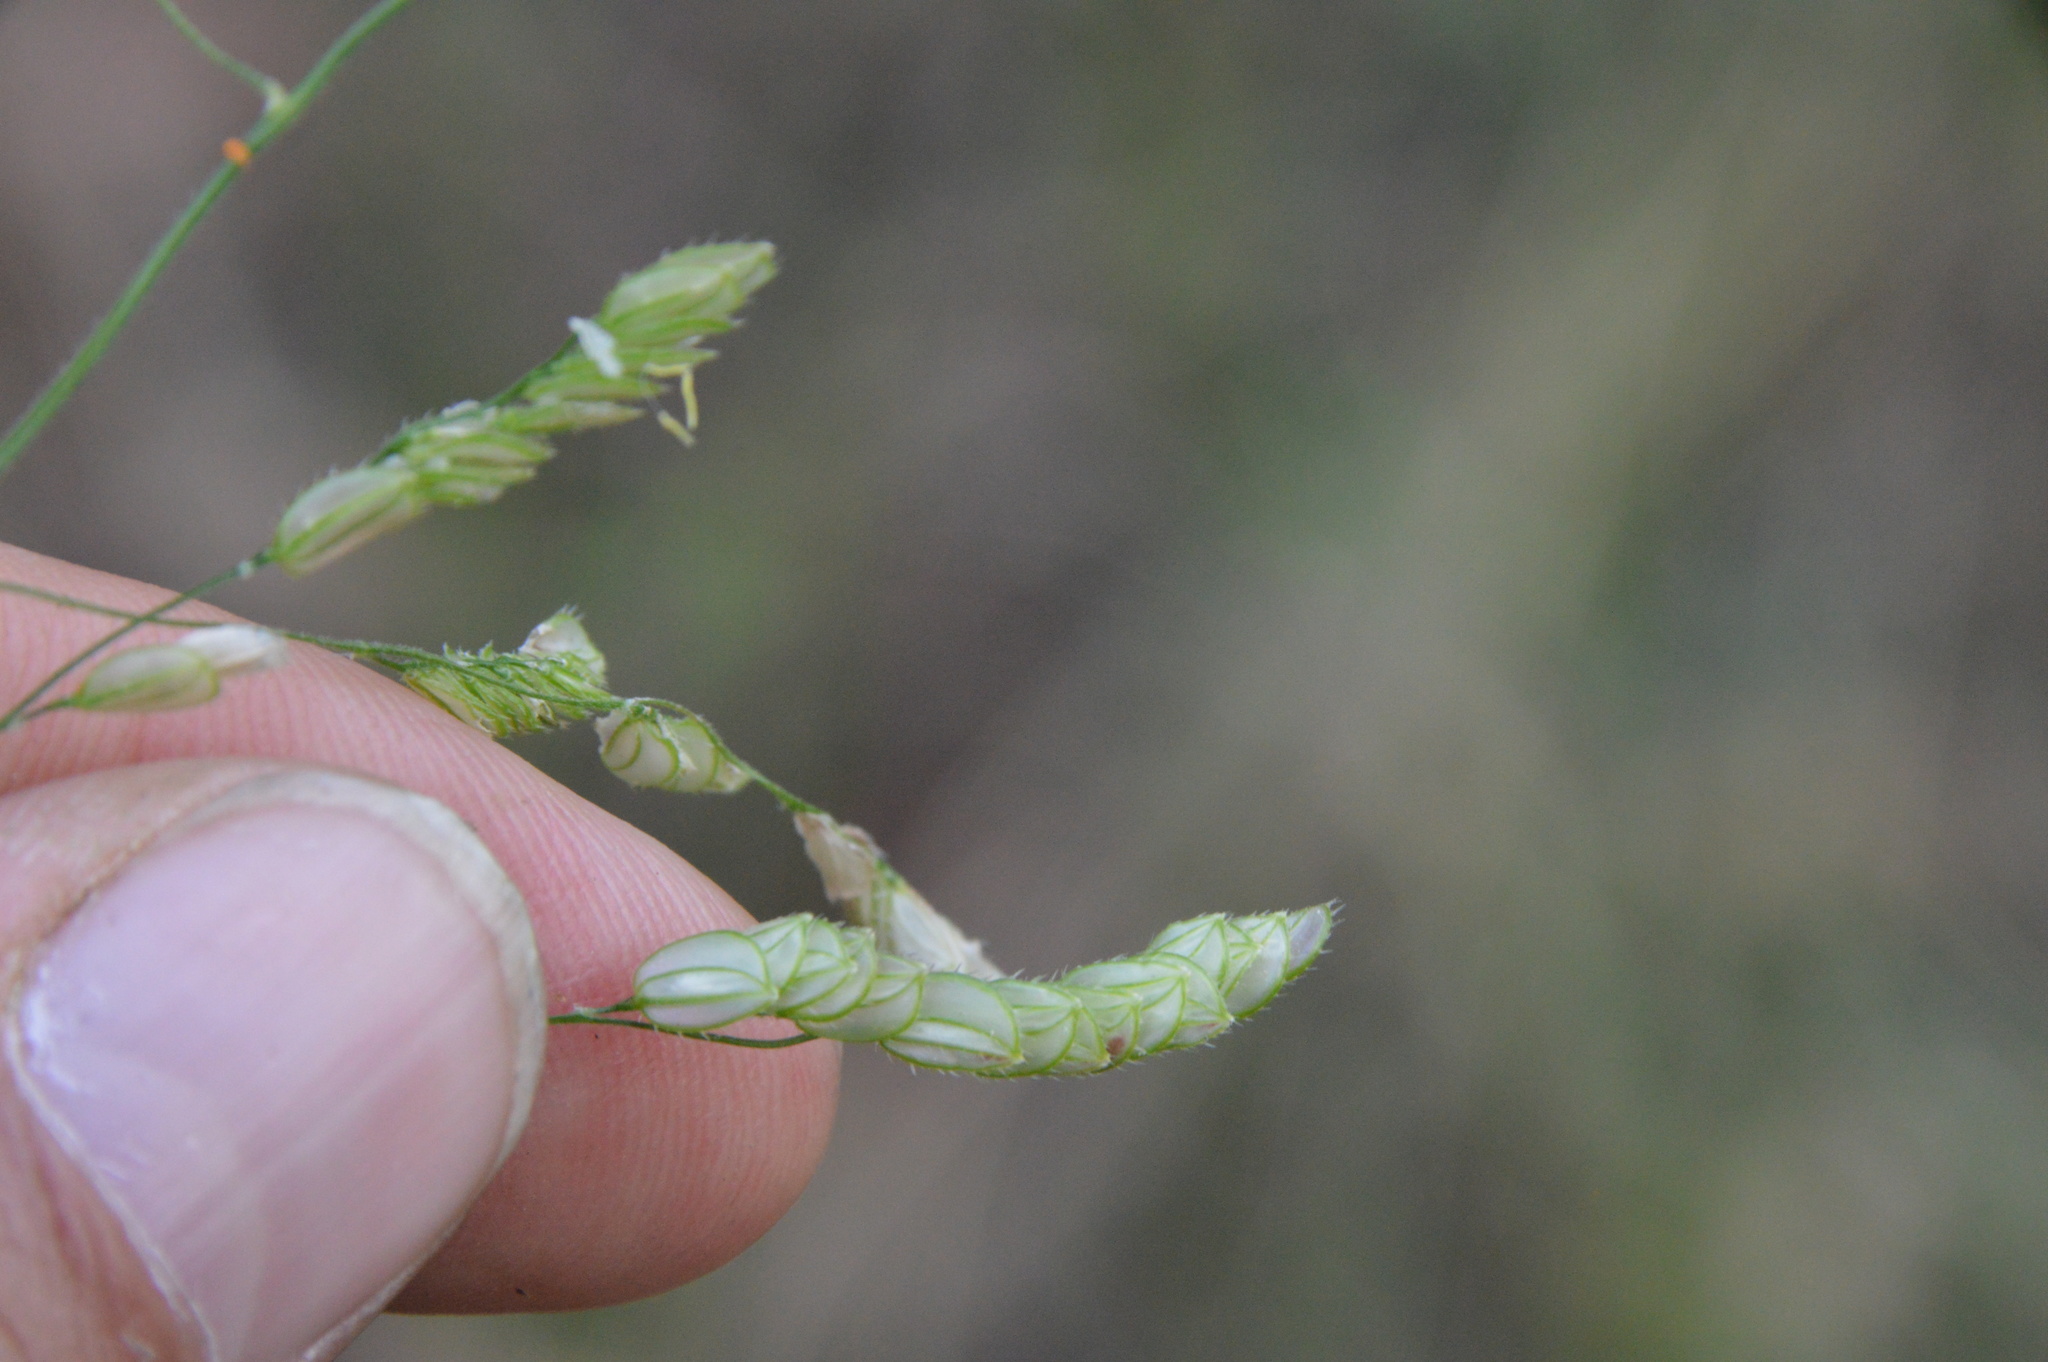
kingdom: Plantae
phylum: Tracheophyta
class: Liliopsida
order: Poales
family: Poaceae
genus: Leersia
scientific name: Leersia lenticularis
